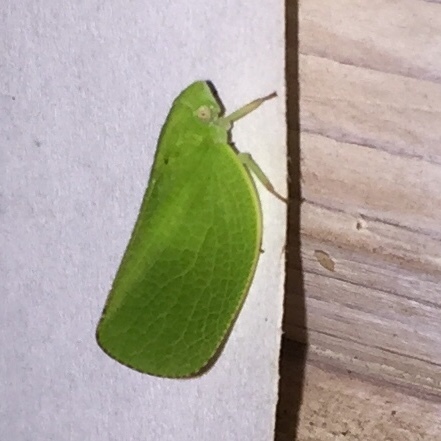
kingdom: Animalia
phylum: Arthropoda
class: Insecta
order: Hemiptera
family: Acanaloniidae
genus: Acanalonia
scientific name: Acanalonia conica
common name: Green cone-headed planthopper
